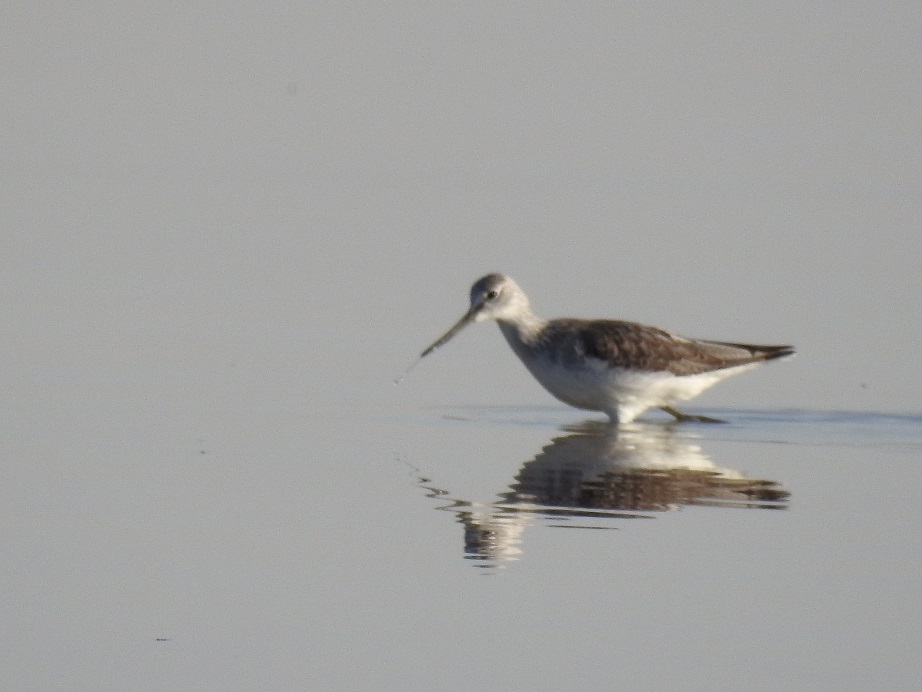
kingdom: Animalia
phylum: Chordata
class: Aves
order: Charadriiformes
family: Scolopacidae
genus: Tringa
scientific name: Tringa nebularia
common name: Common greenshank
